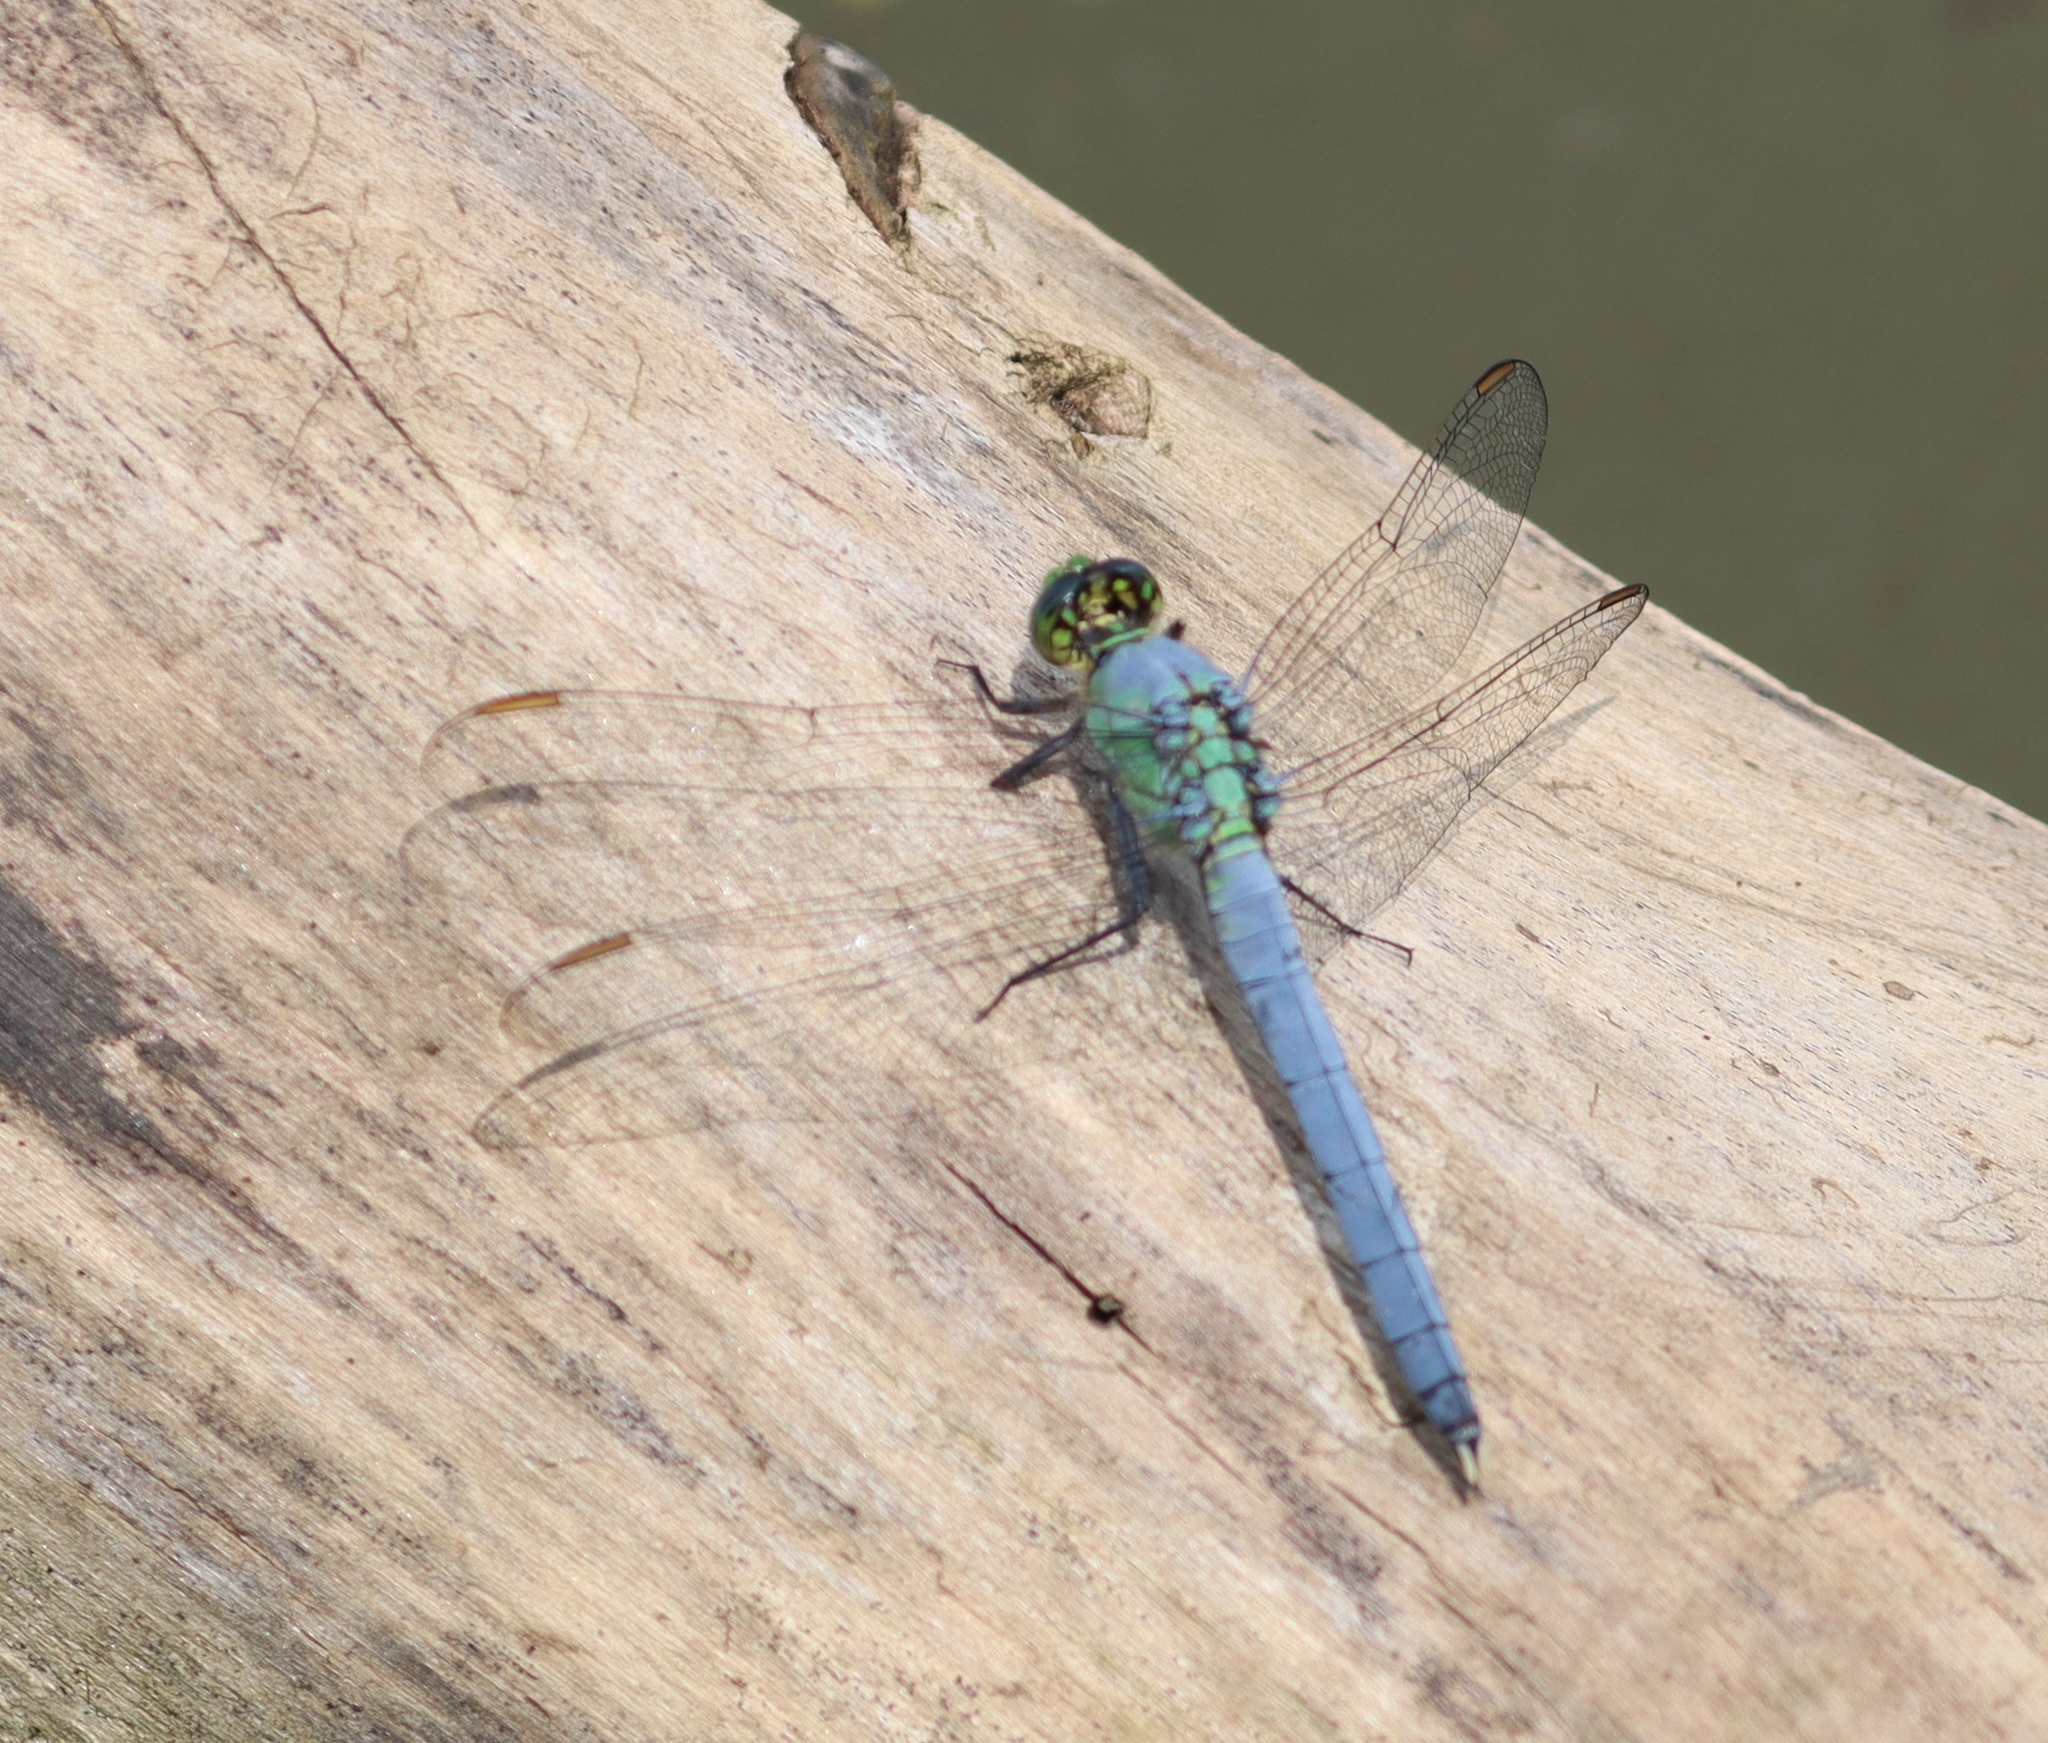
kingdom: Animalia
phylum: Arthropoda
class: Insecta
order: Odonata
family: Libellulidae
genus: Erythemis
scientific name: Erythemis simplicicollis
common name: Eastern pondhawk
